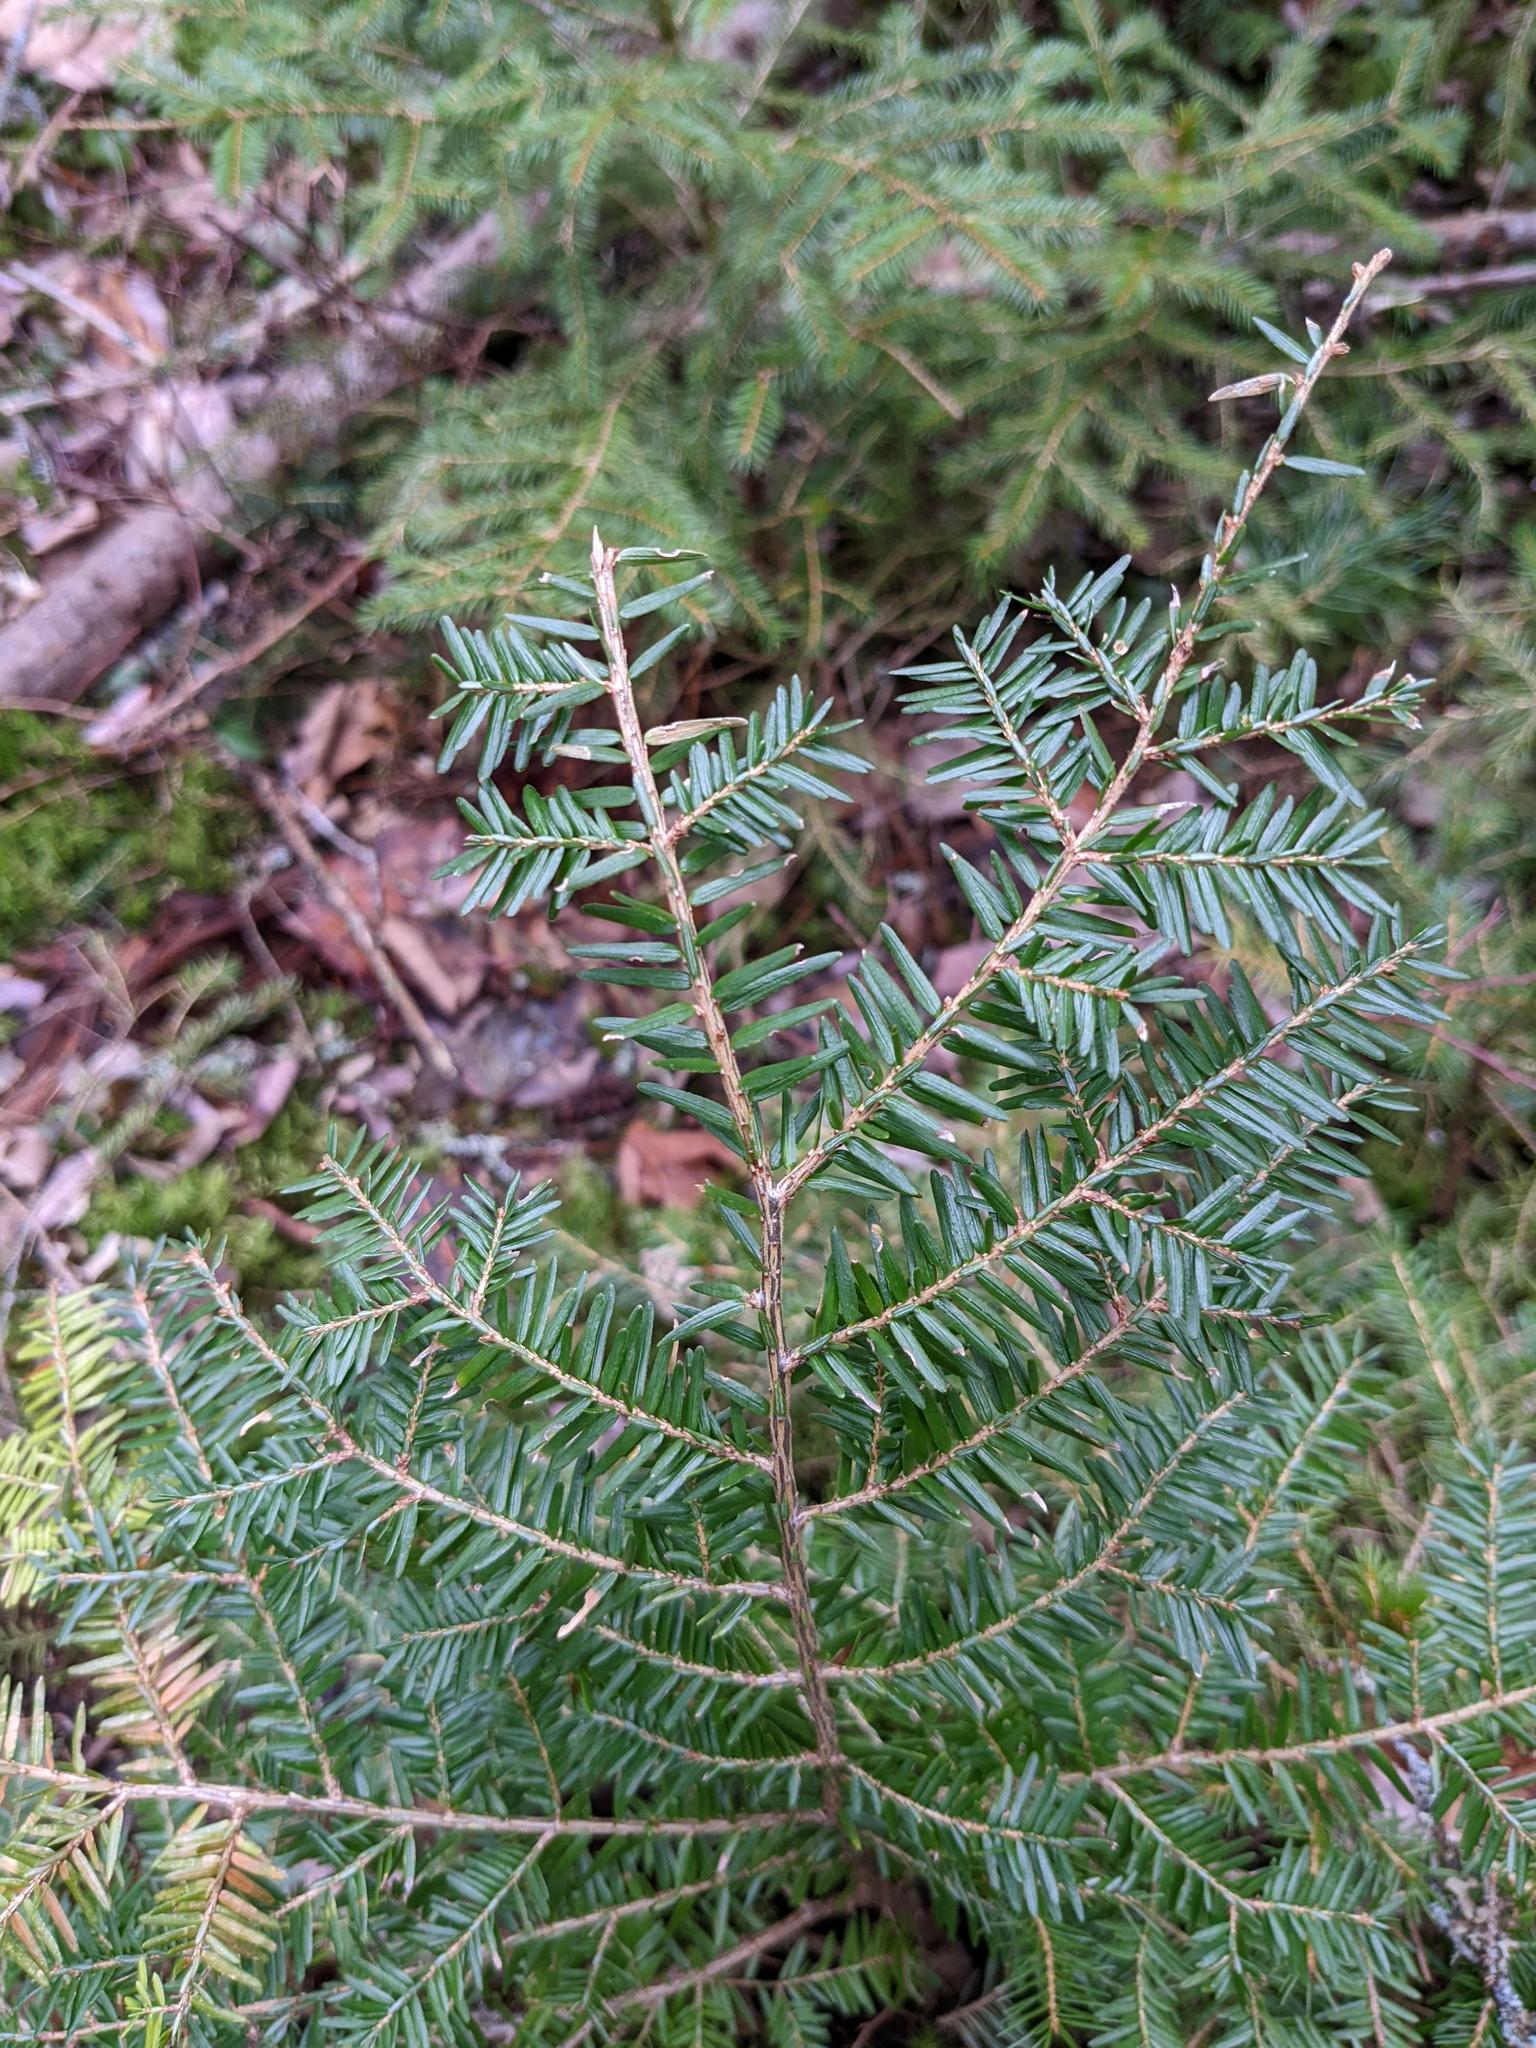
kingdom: Plantae
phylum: Tracheophyta
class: Pinopsida
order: Pinales
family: Pinaceae
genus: Tsuga
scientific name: Tsuga canadensis
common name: Eastern hemlock
